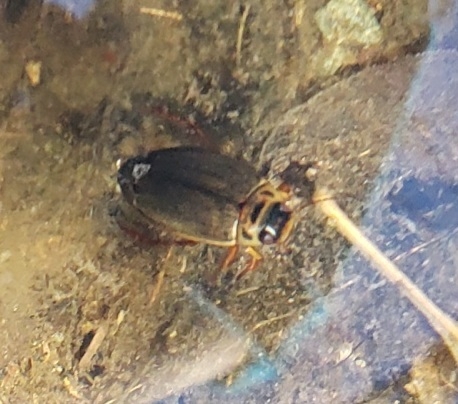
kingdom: Animalia
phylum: Arthropoda
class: Insecta
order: Coleoptera
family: Dytiscidae
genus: Rhantus
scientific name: Rhantus sericans
